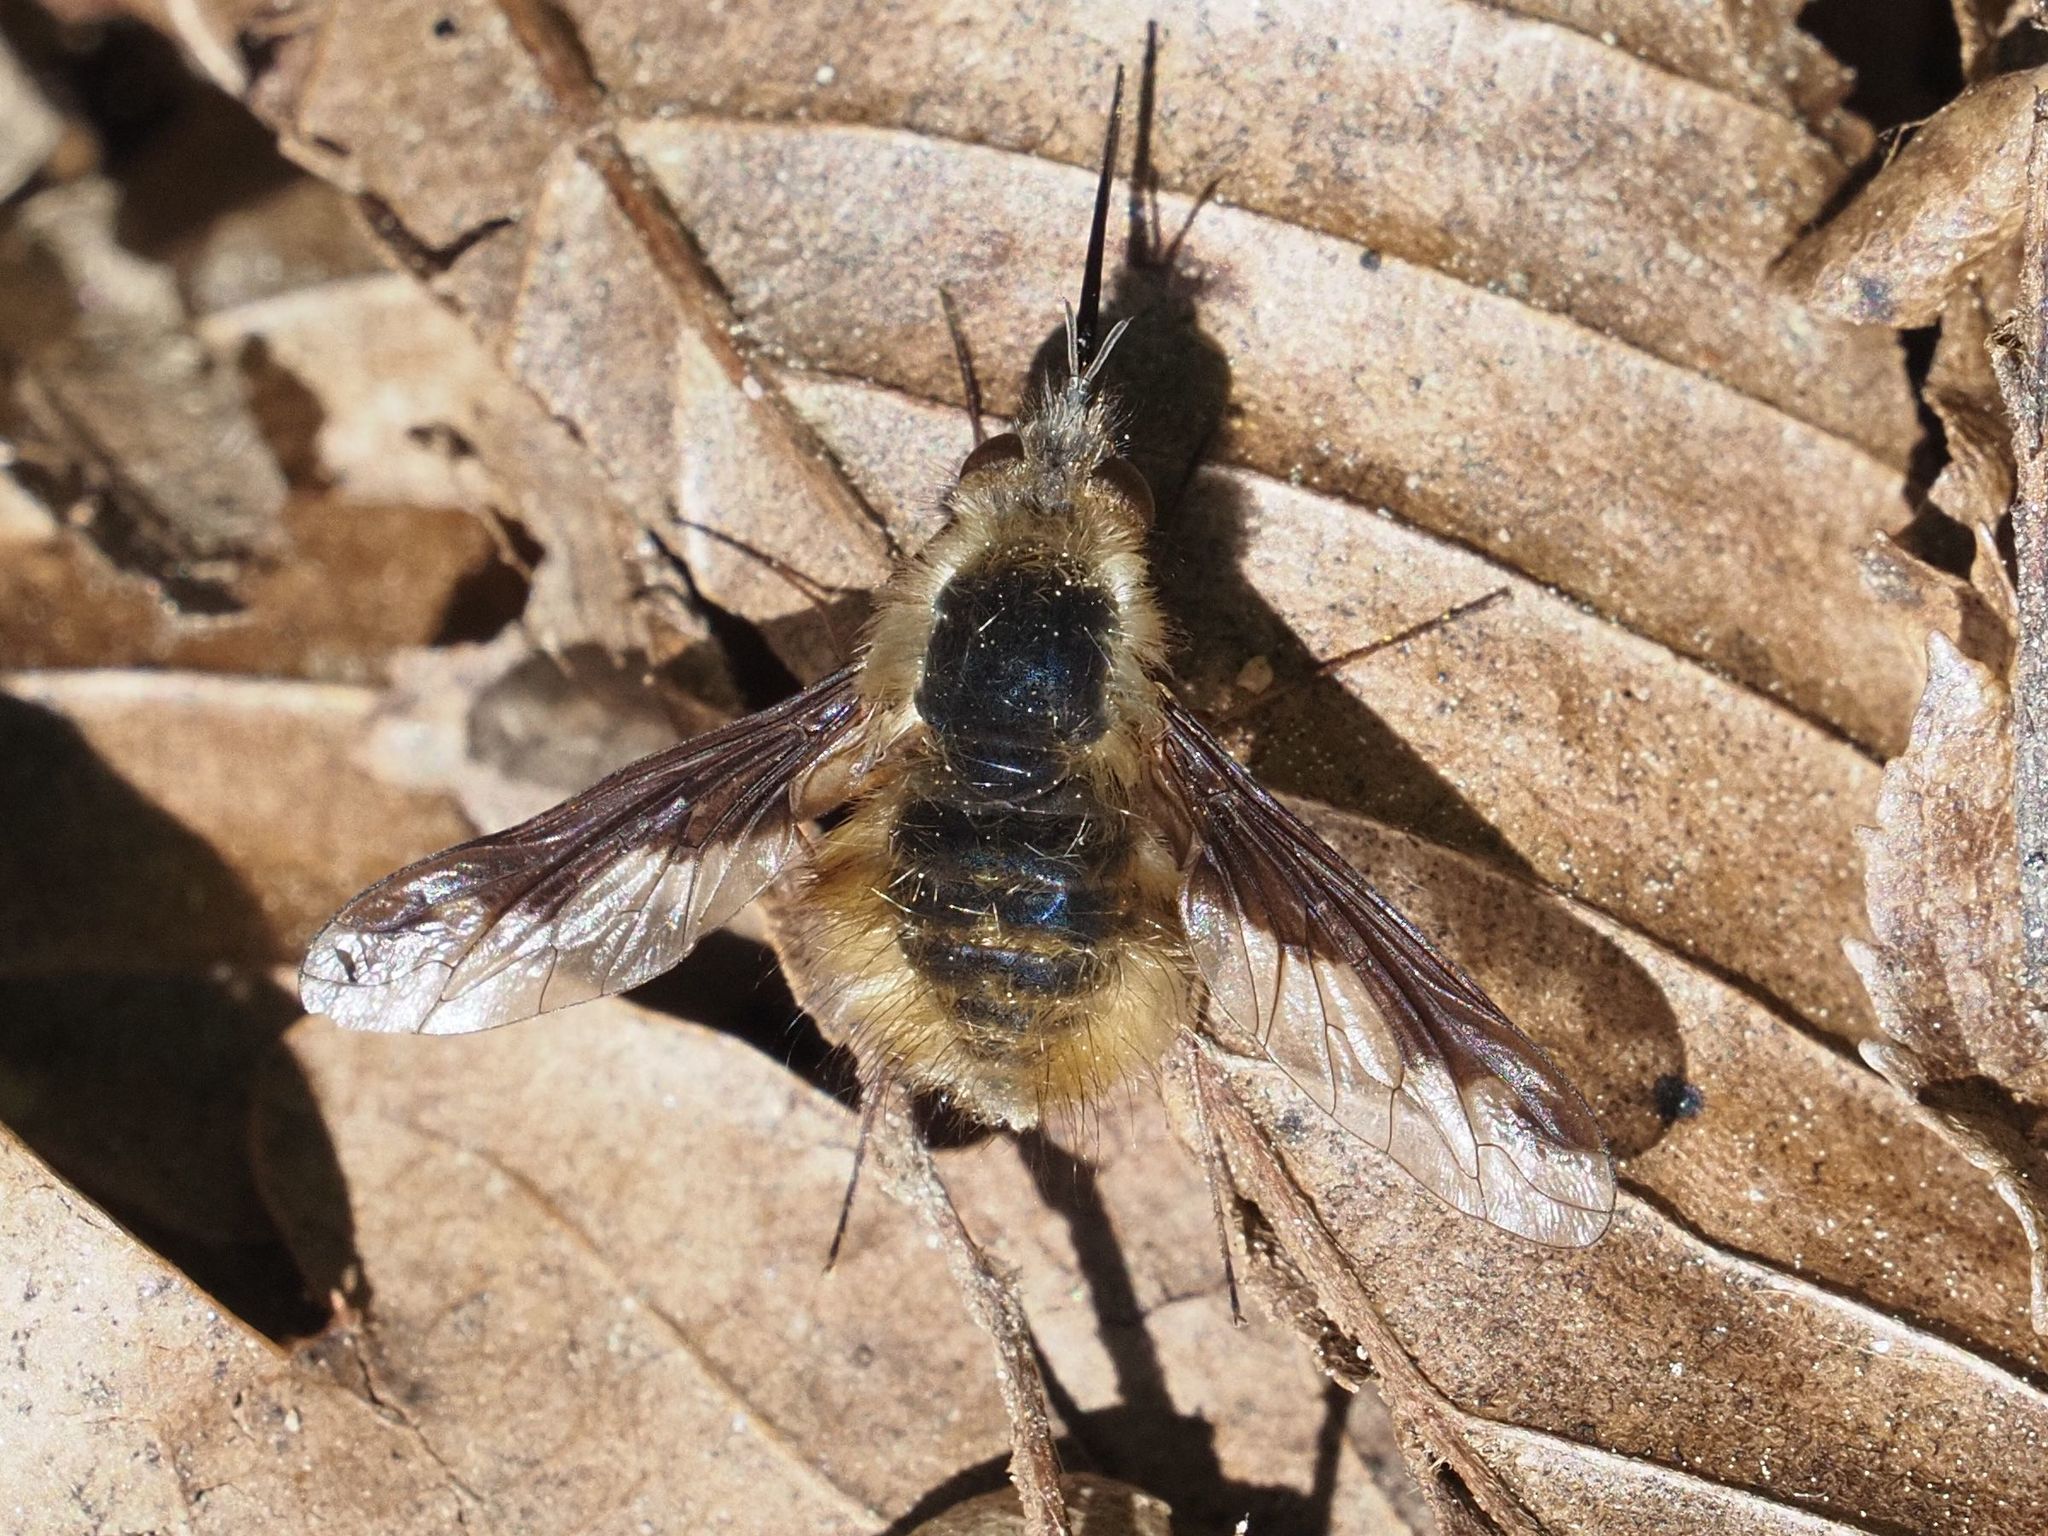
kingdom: Animalia
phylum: Arthropoda
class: Insecta
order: Diptera
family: Bombyliidae
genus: Bombylius
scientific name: Bombylius major
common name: Bee fly
